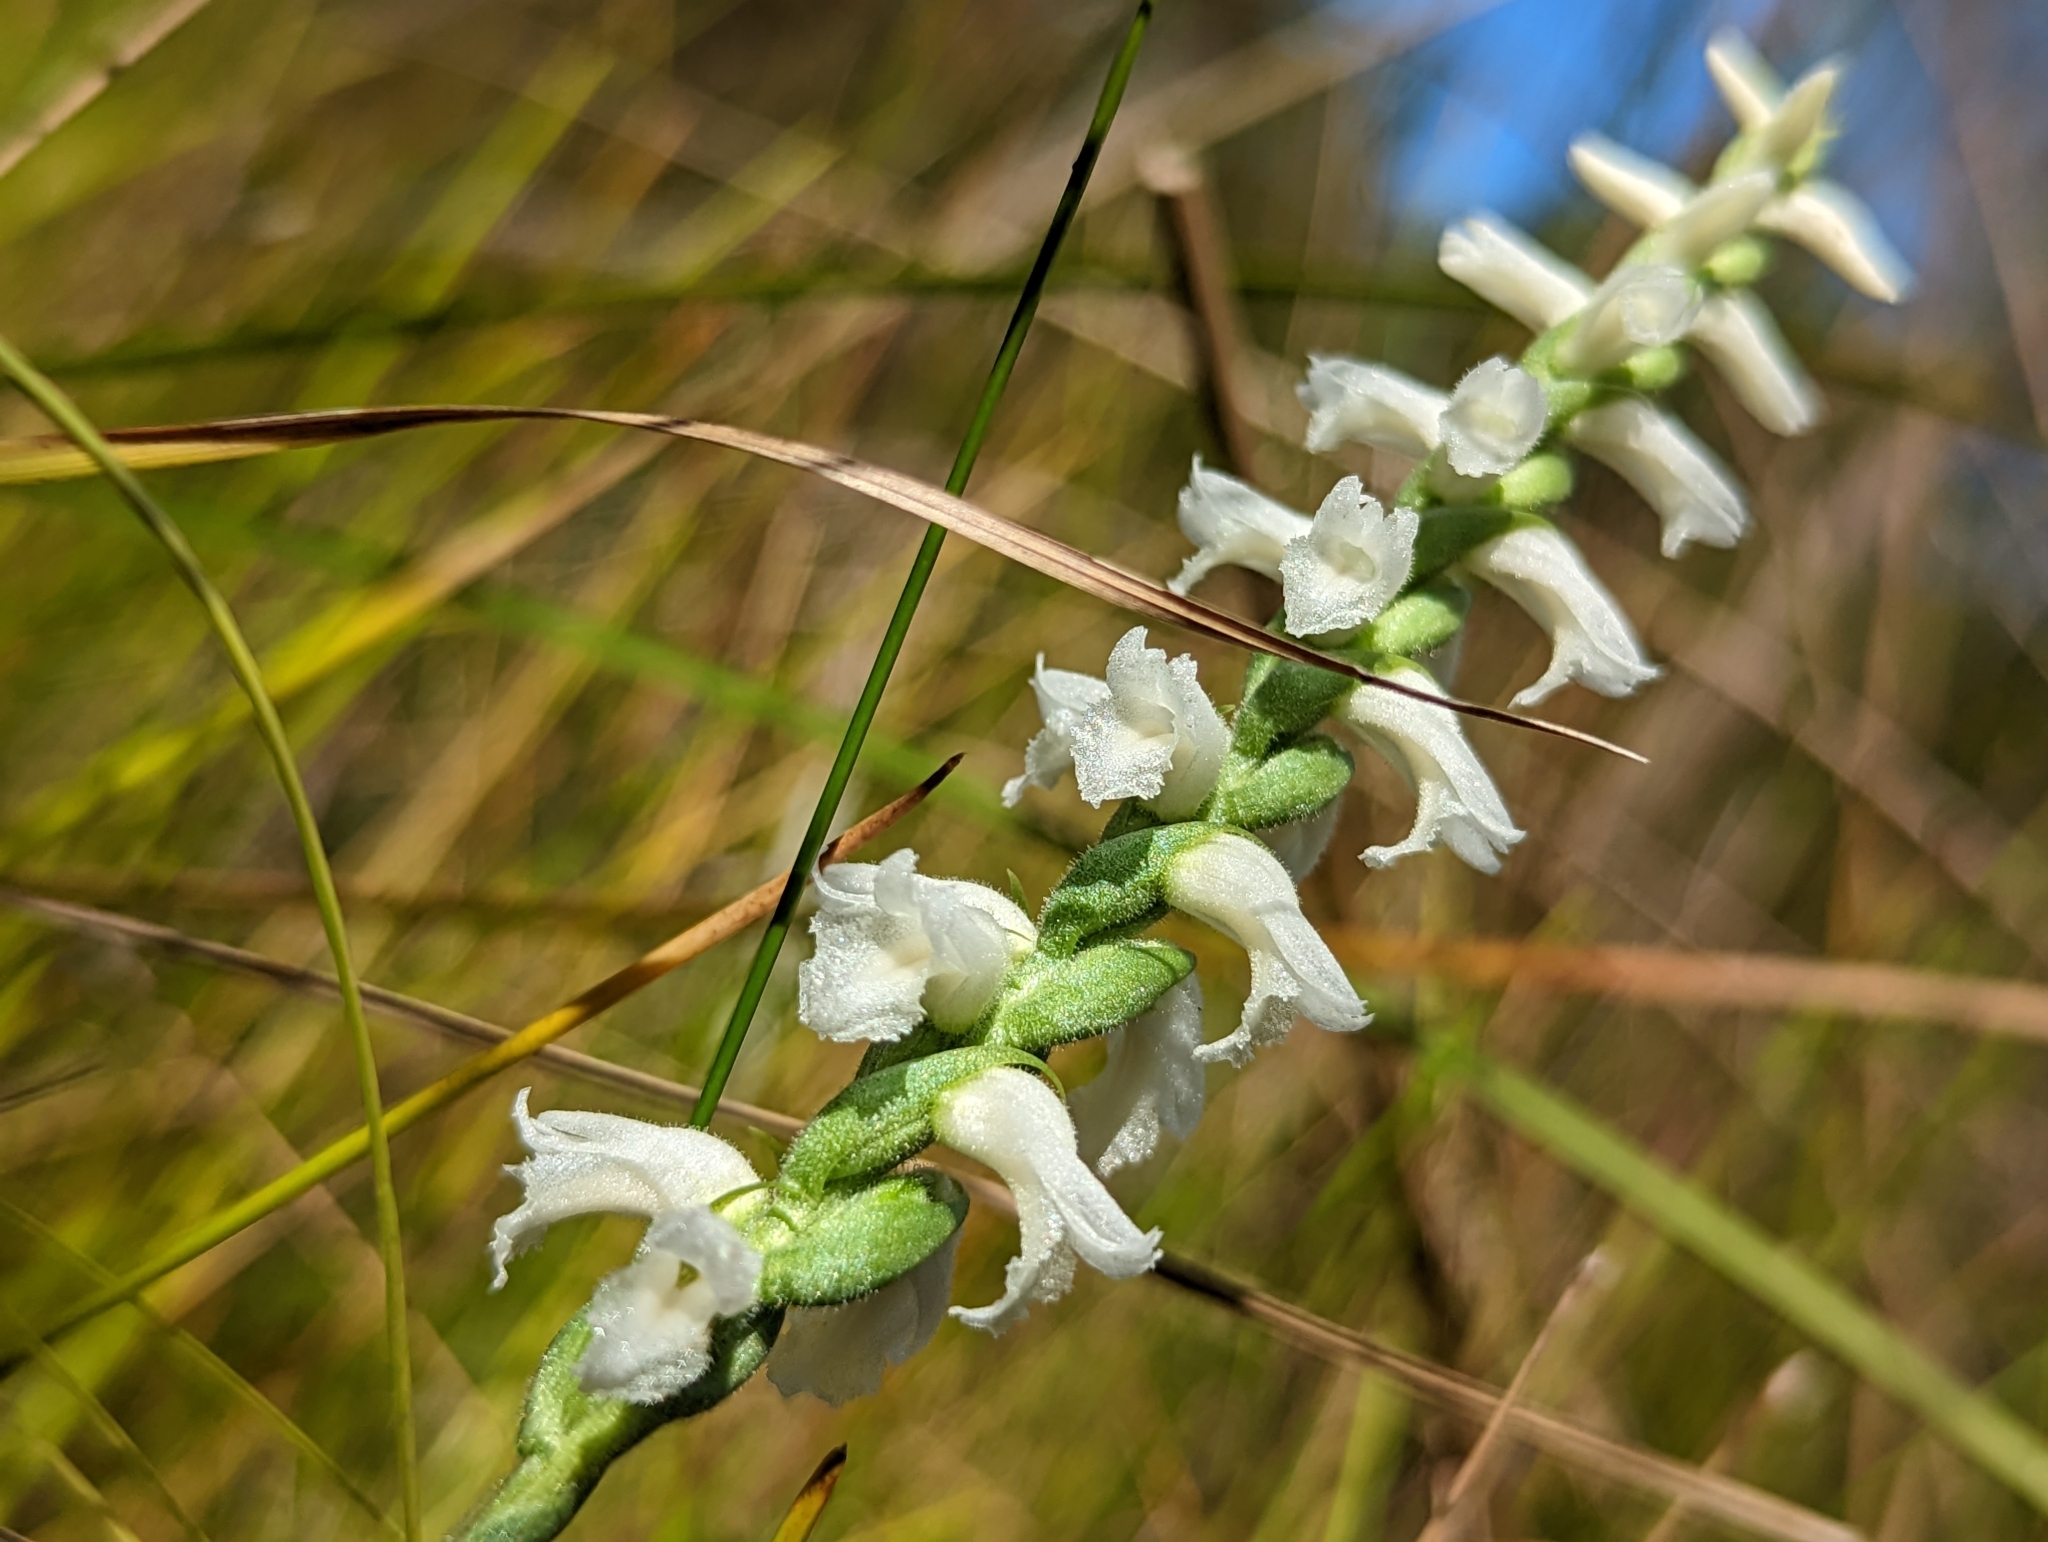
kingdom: Plantae
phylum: Tracheophyta
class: Liliopsida
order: Asparagales
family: Orchidaceae
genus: Spiranthes
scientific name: Spiranthes cernua
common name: Dropping ladies'-tresses
